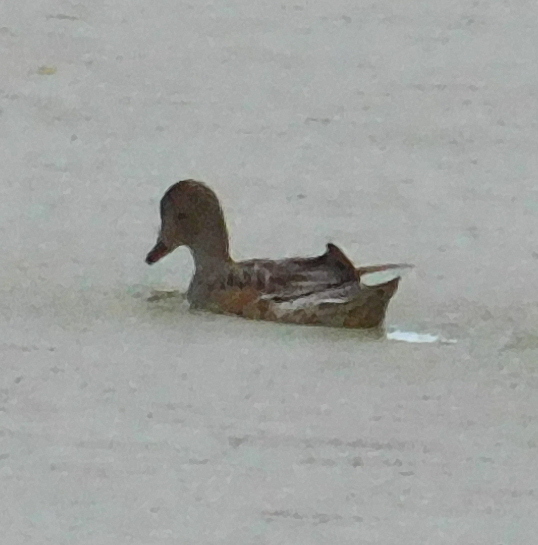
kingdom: Animalia
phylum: Chordata
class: Aves
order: Anseriformes
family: Anatidae
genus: Mareca
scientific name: Mareca penelope
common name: Eurasian wigeon
